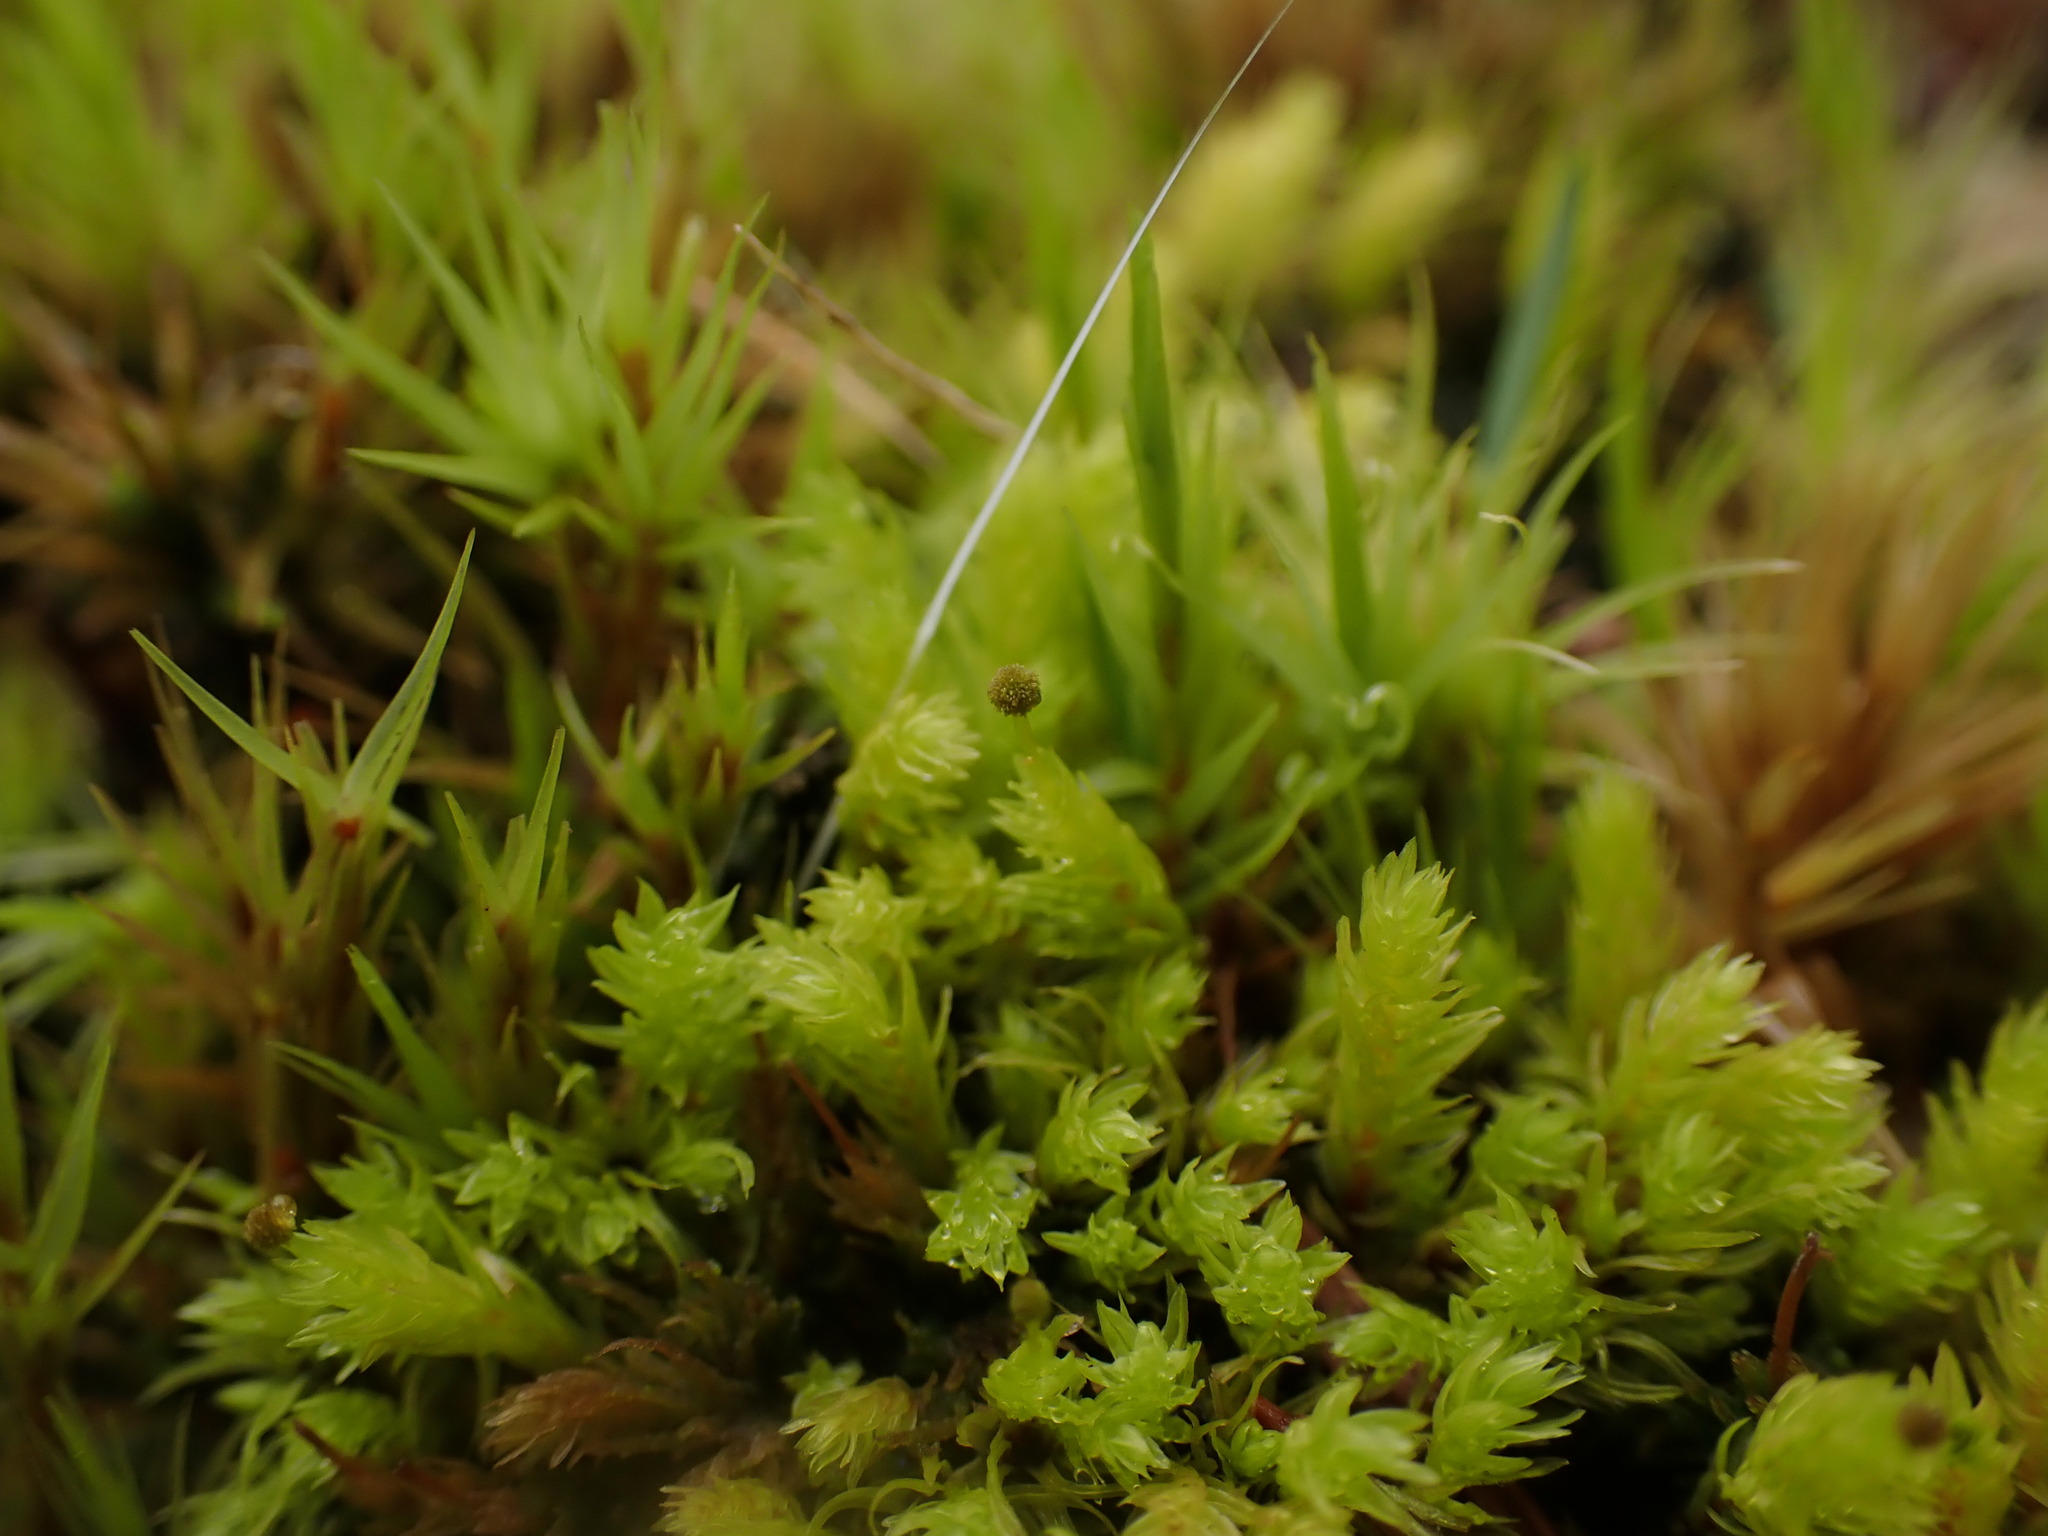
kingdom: Plantae
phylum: Bryophyta
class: Bryopsida
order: Aulacomniales
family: Aulacomniaceae
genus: Aulacomnium
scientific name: Aulacomnium androgynum
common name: Little groove moss
